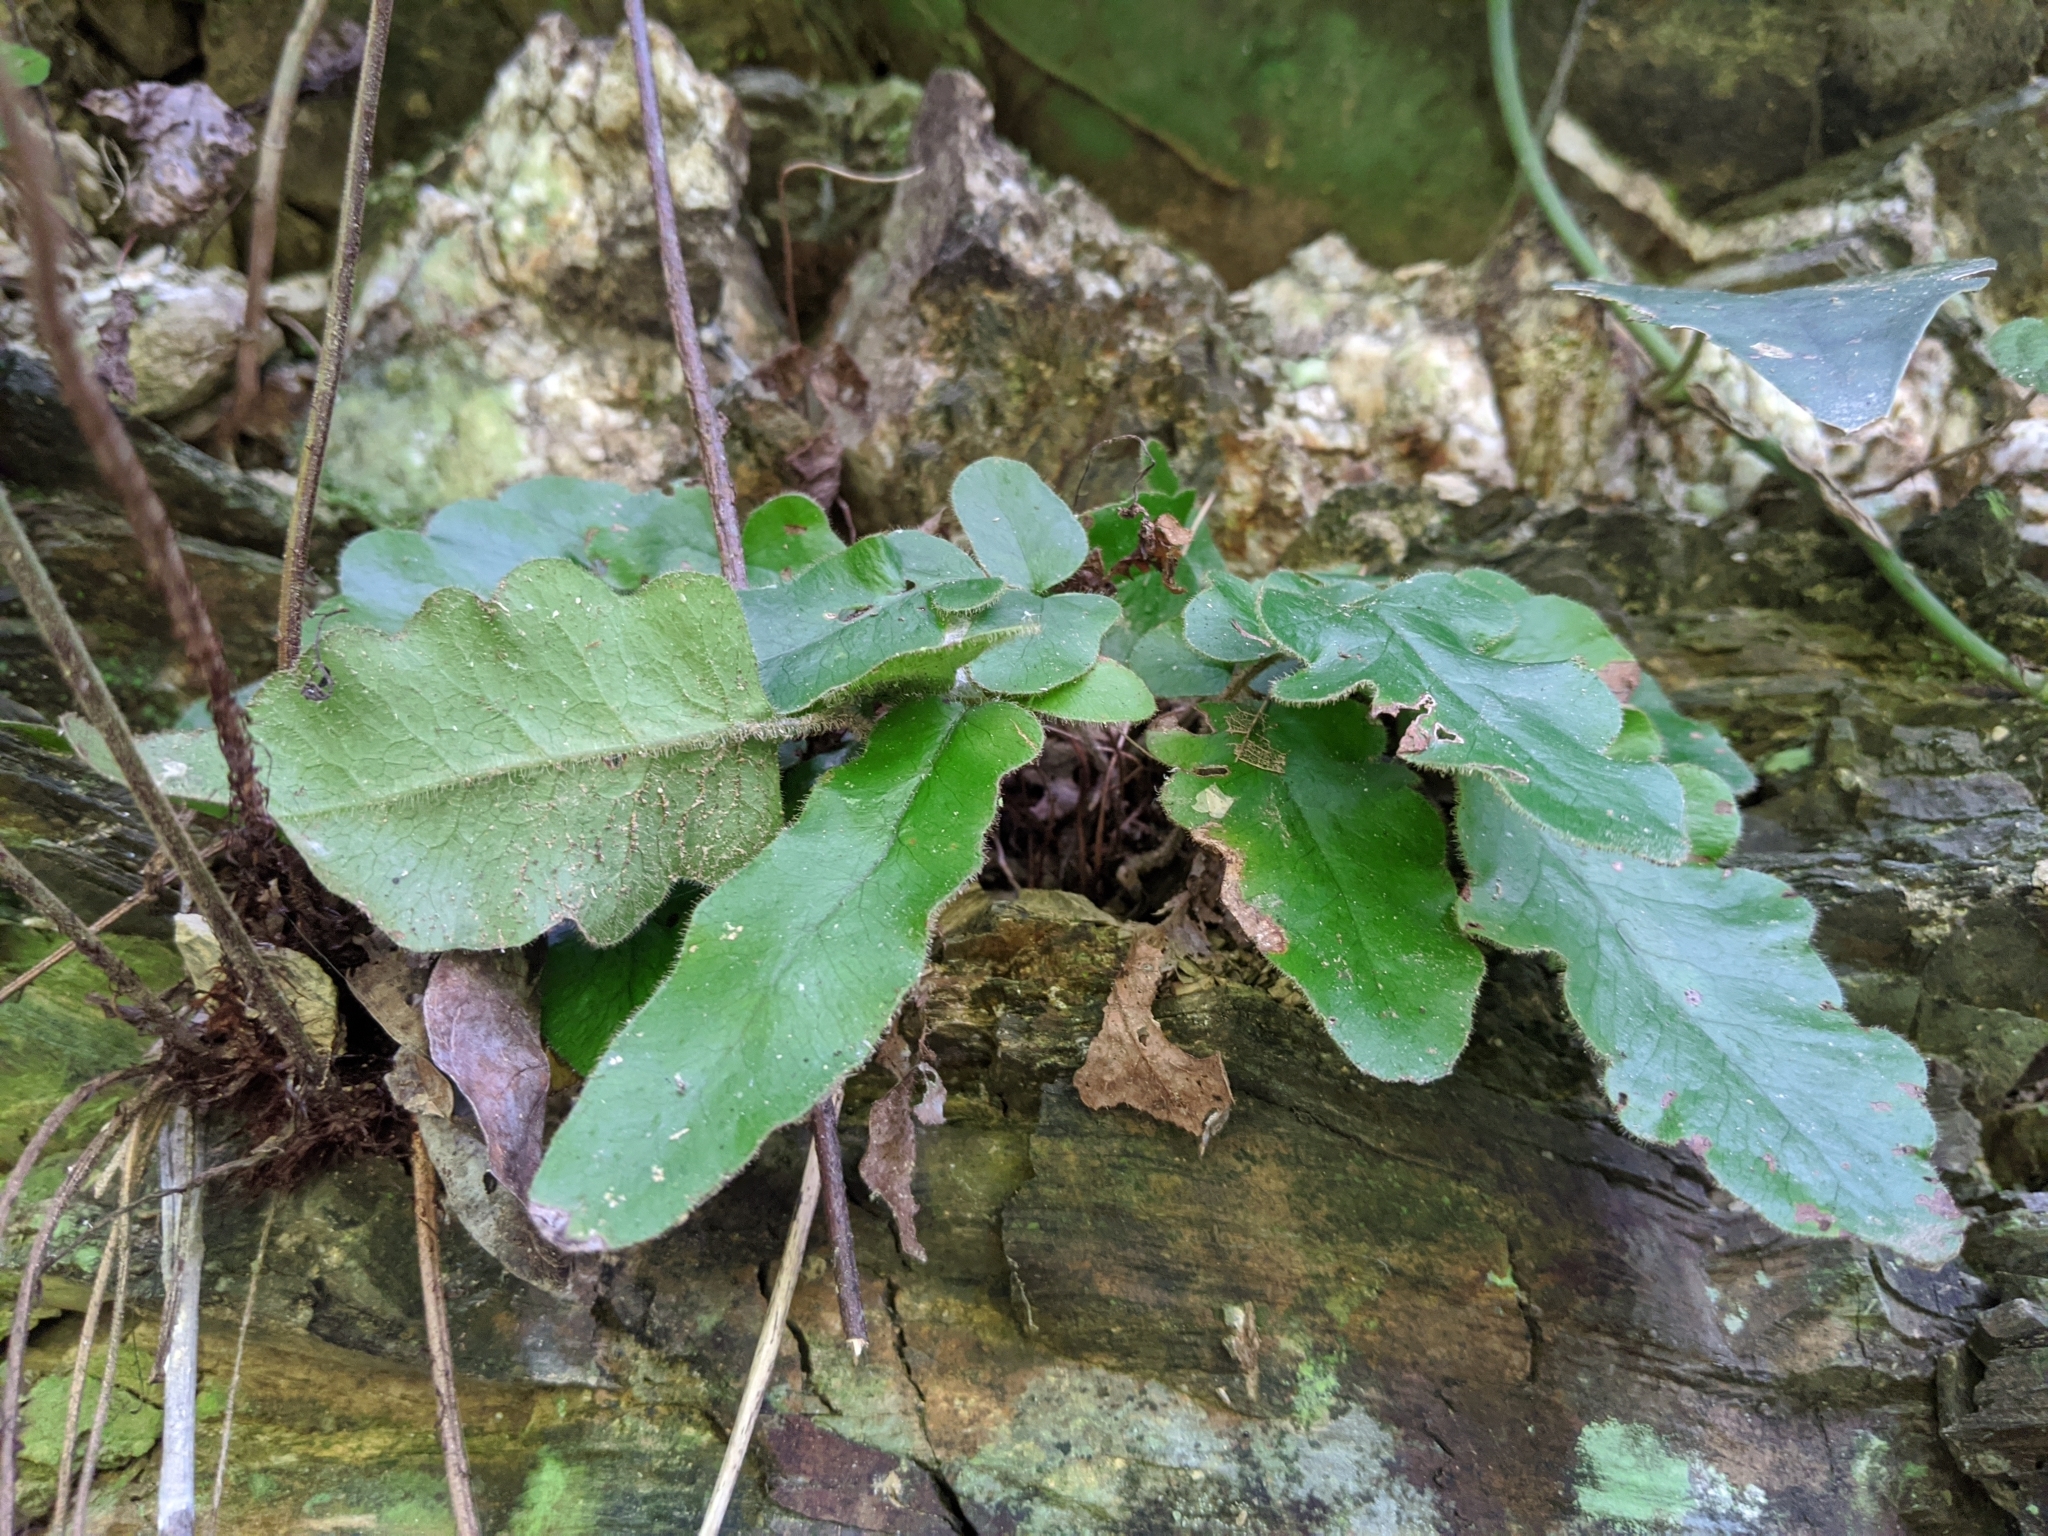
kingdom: Plantae
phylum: Tracheophyta
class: Polypodiopsida
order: Polypodiales
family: Tectariaceae
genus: Tectaria
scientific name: Tectaria zeilanica
